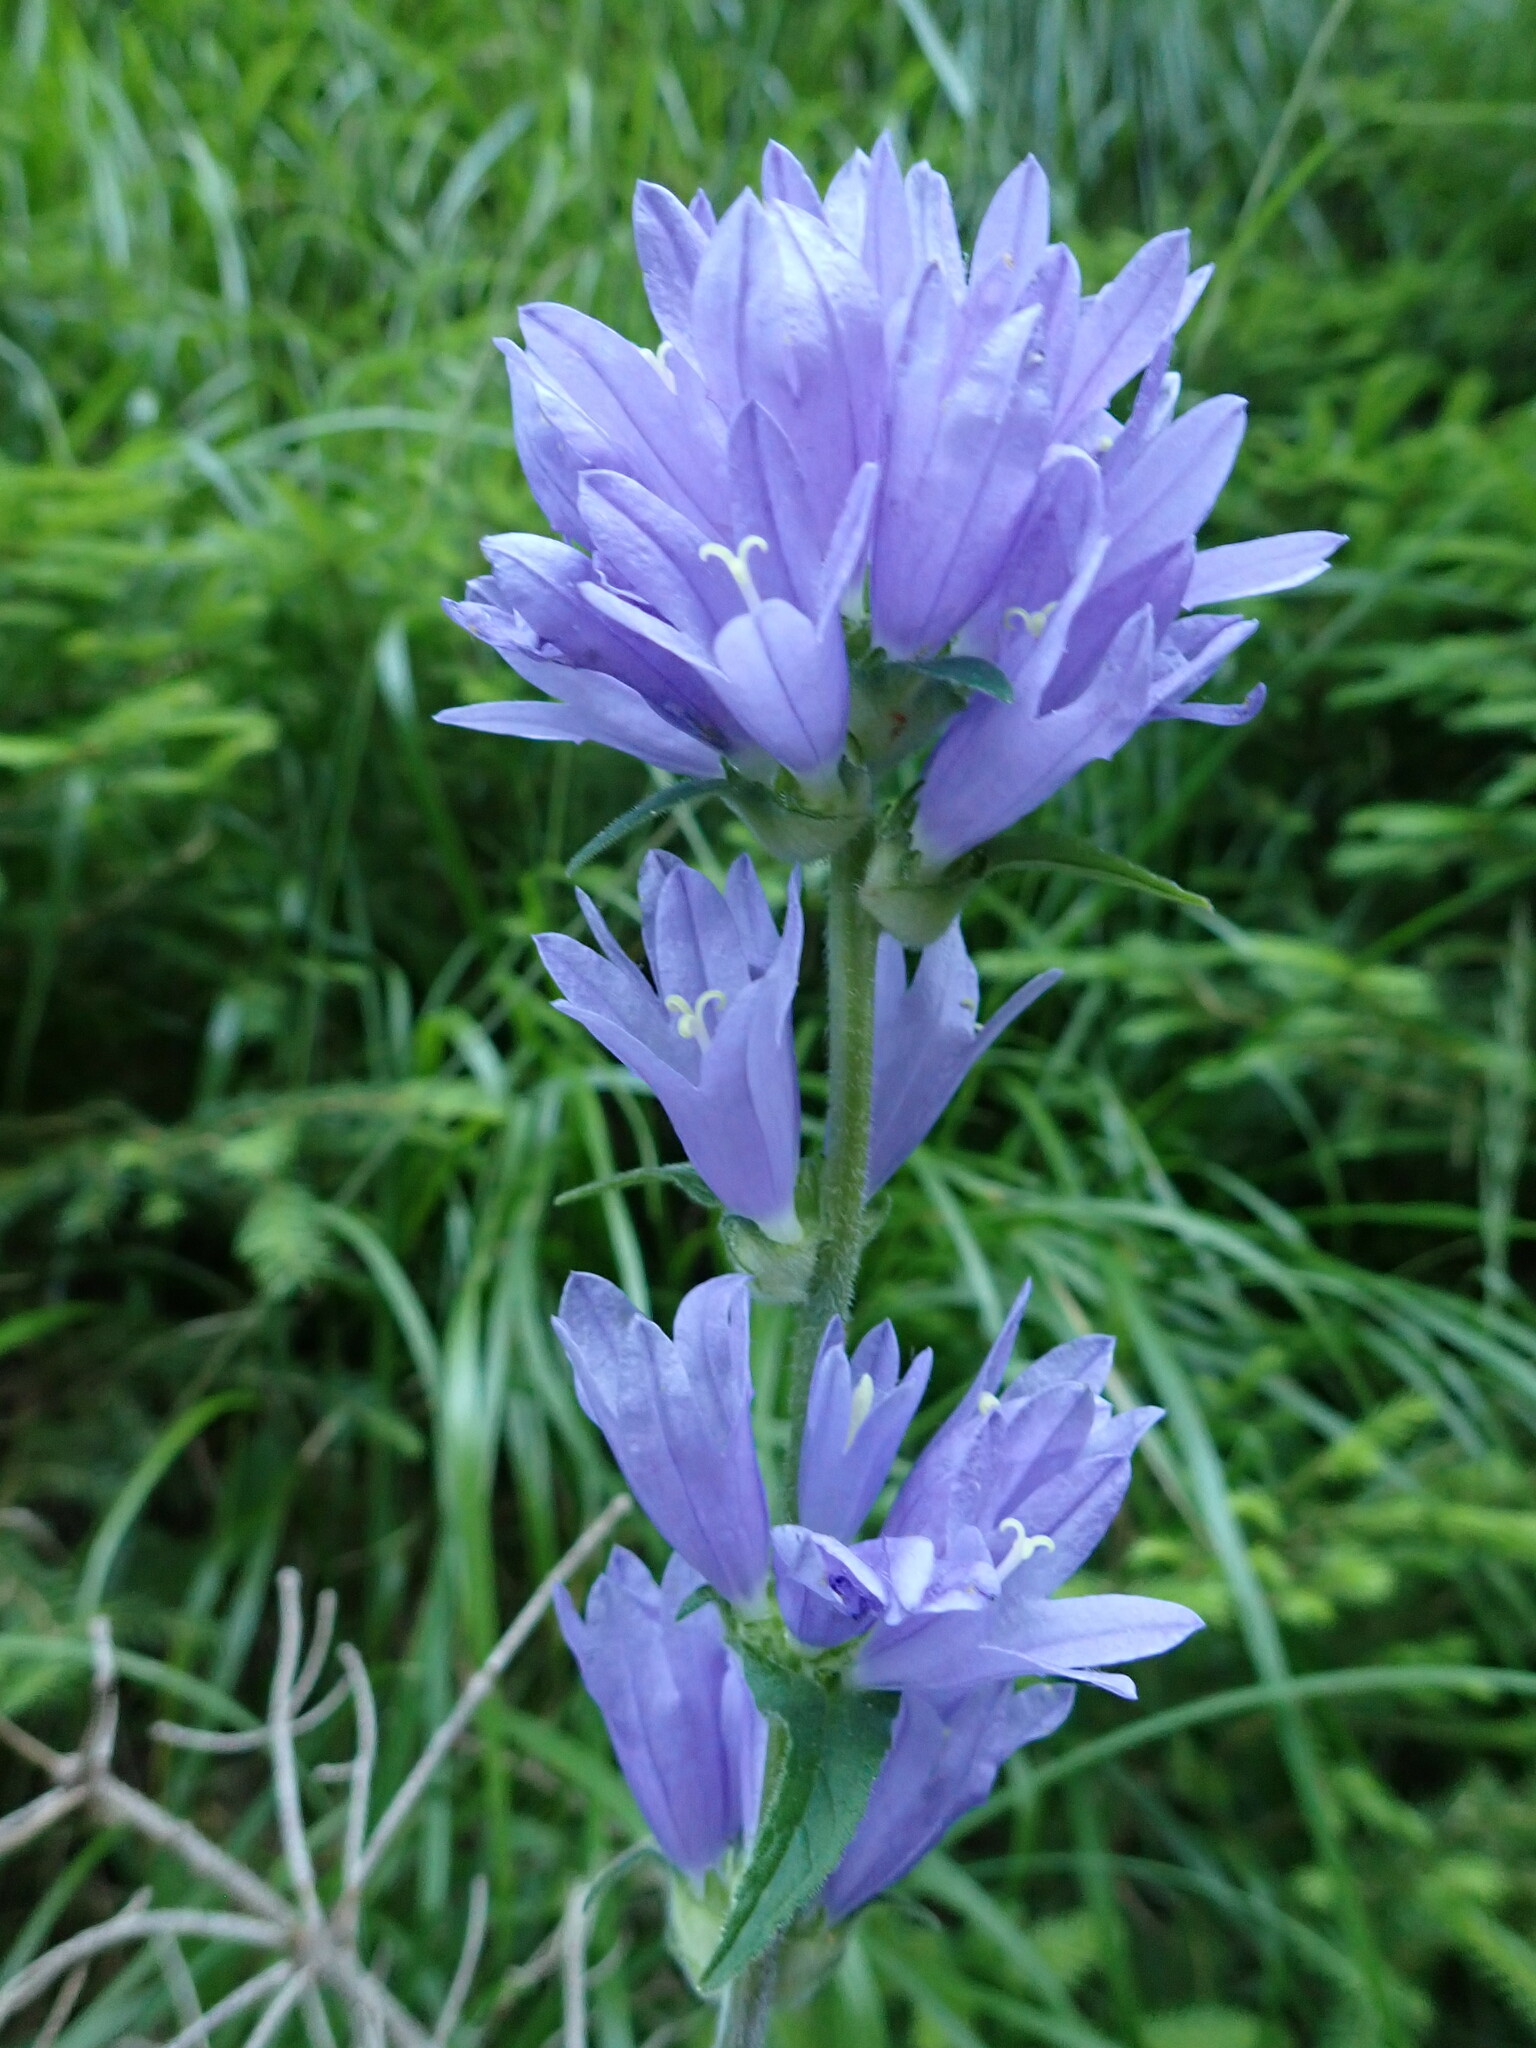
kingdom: Plantae
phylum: Tracheophyta
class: Magnoliopsida
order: Asterales
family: Campanulaceae
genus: Campanula
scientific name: Campanula cervicaria
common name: Bristly bellflower
